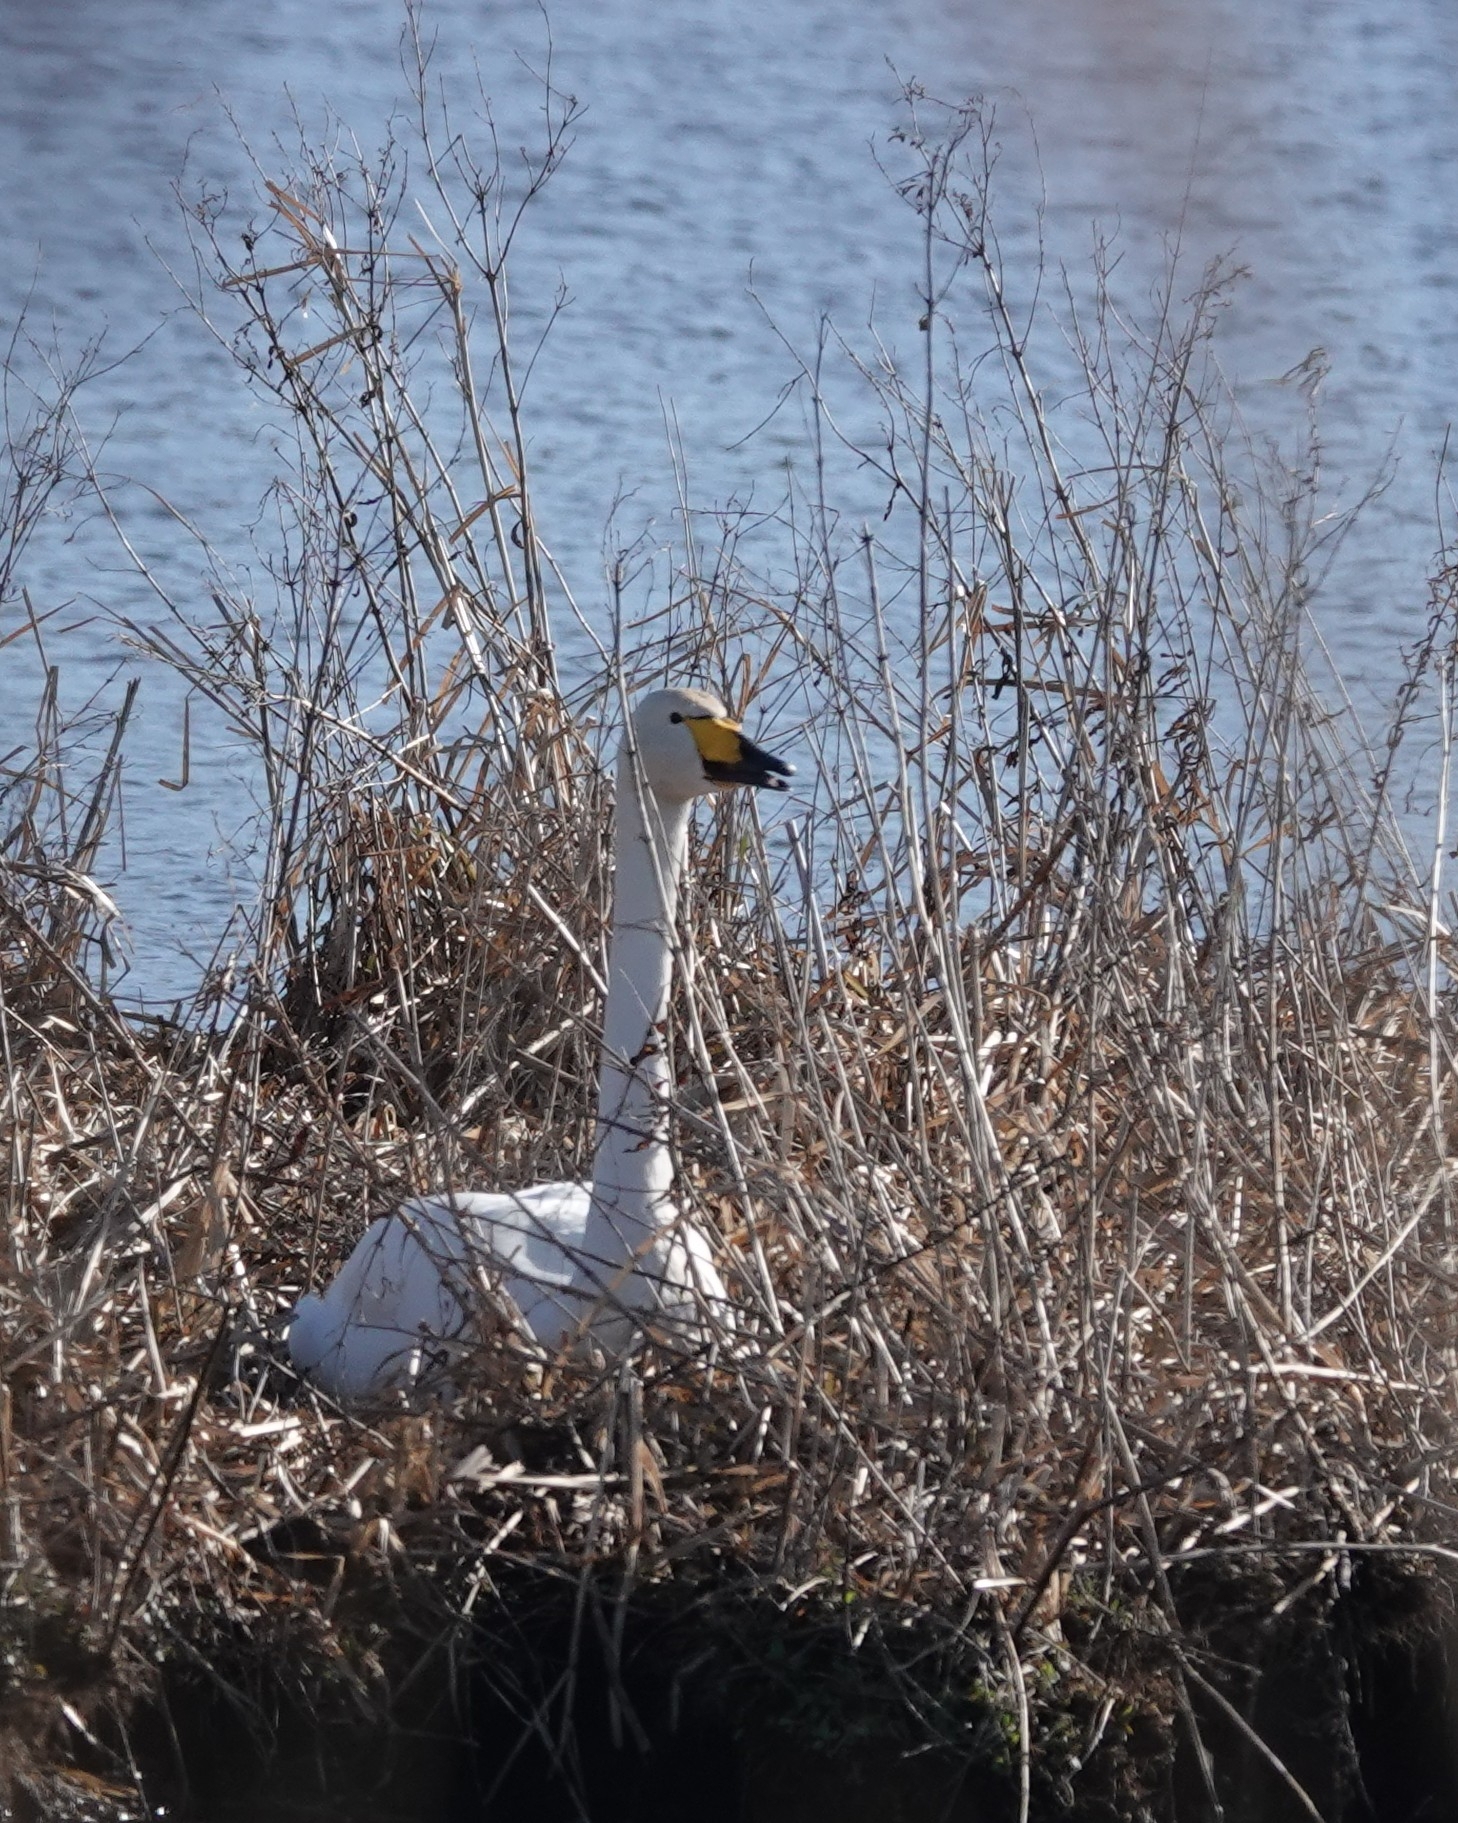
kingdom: Animalia
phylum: Chordata
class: Aves
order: Anseriformes
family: Anatidae
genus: Cygnus
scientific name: Cygnus cygnus
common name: Whooper swan
